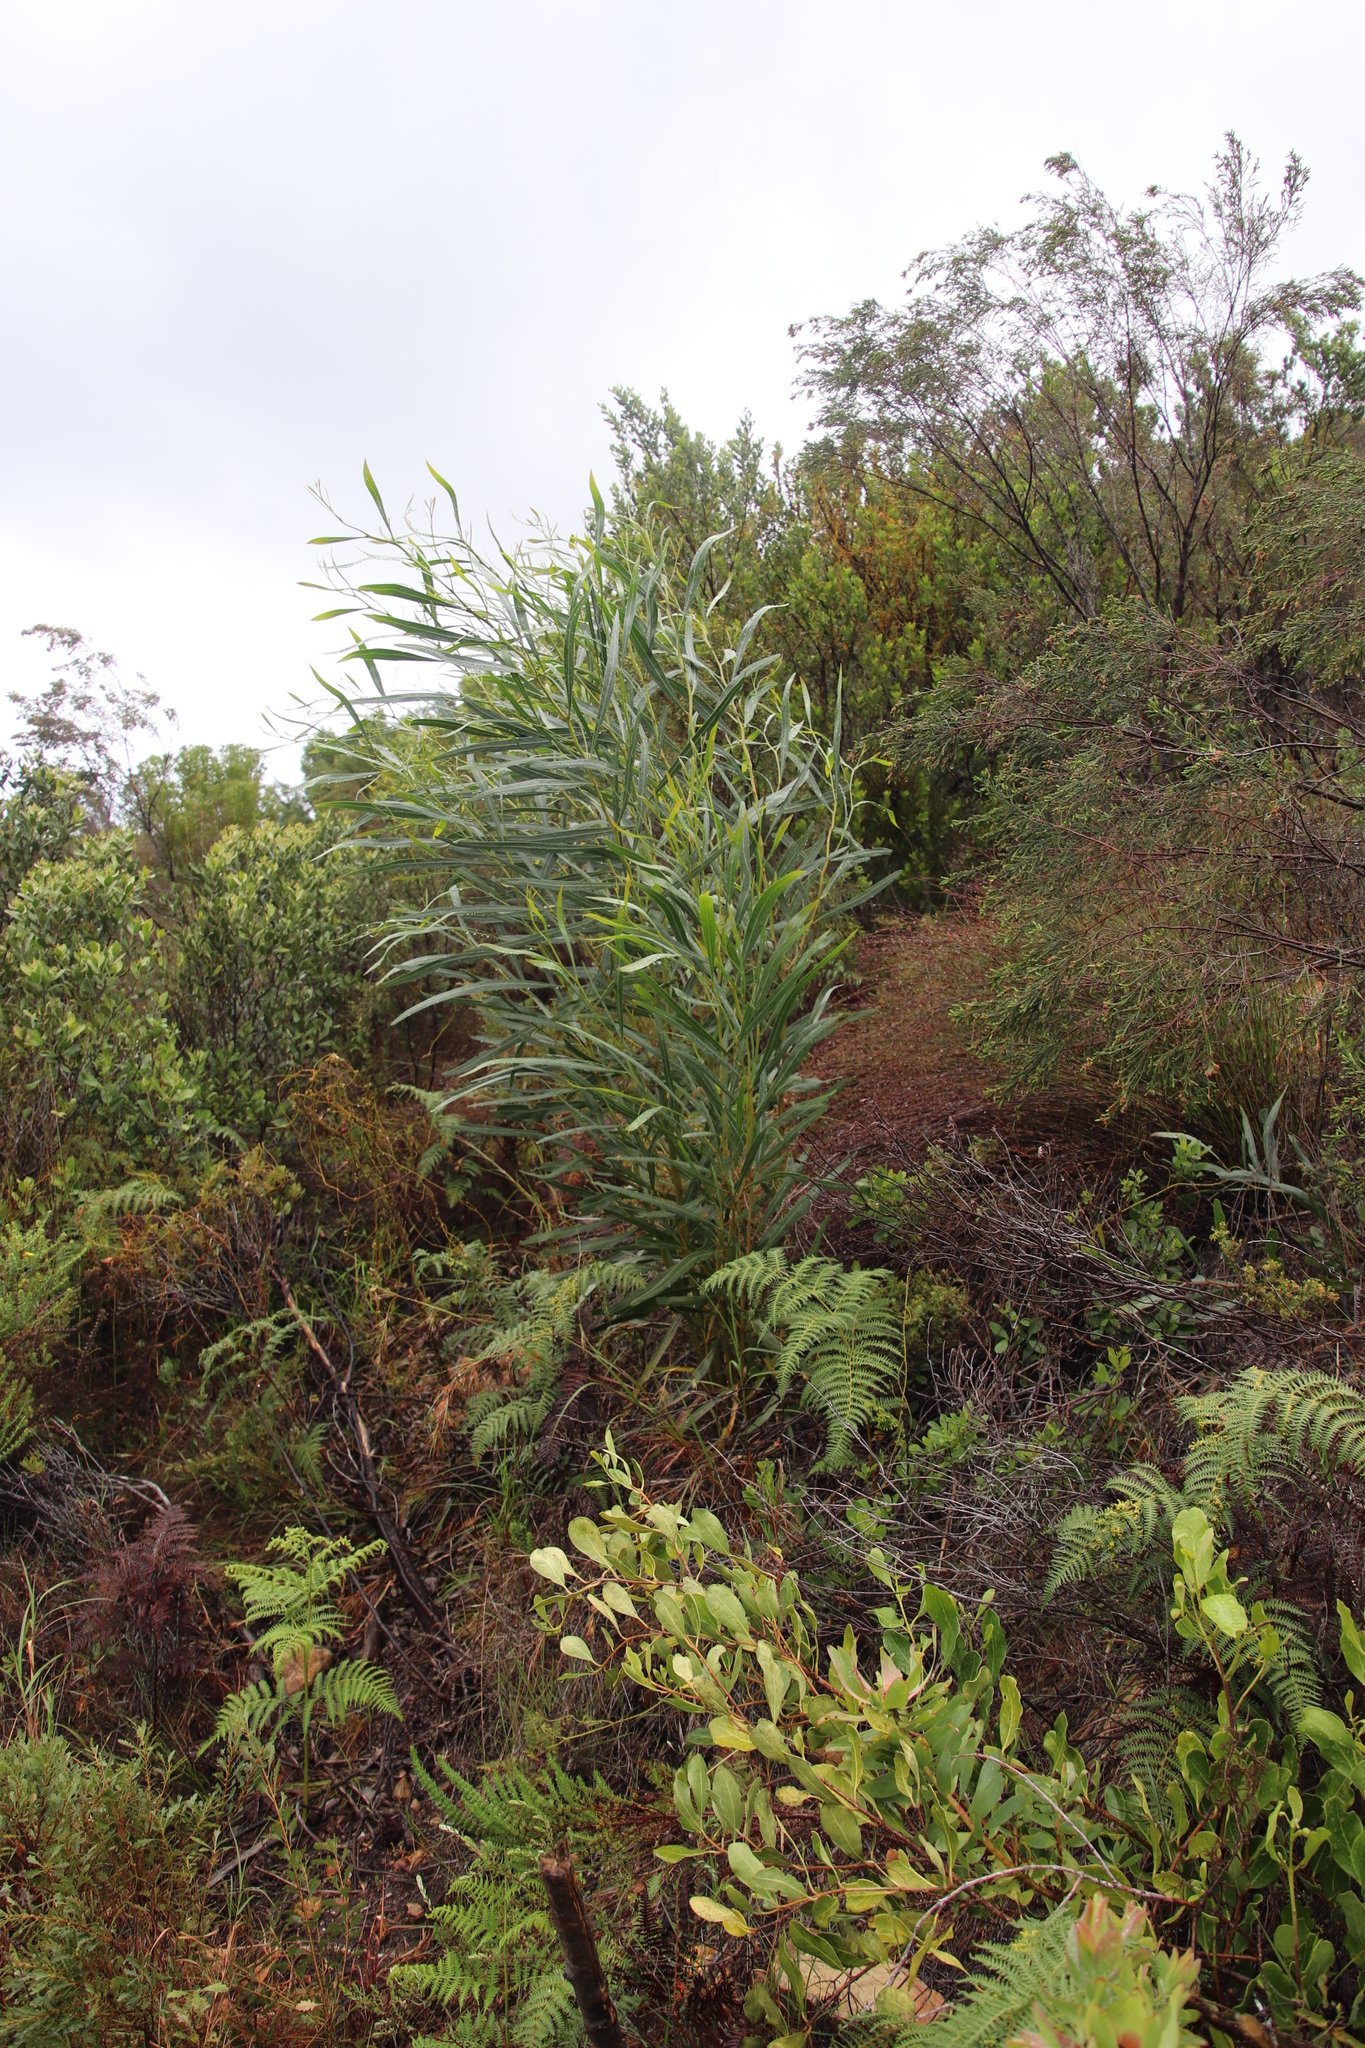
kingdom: Plantae
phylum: Tracheophyta
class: Magnoliopsida
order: Proteales
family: Proteaceae
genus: Leucadendron
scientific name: Leucadendron salignum
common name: Common sunshine conebush
